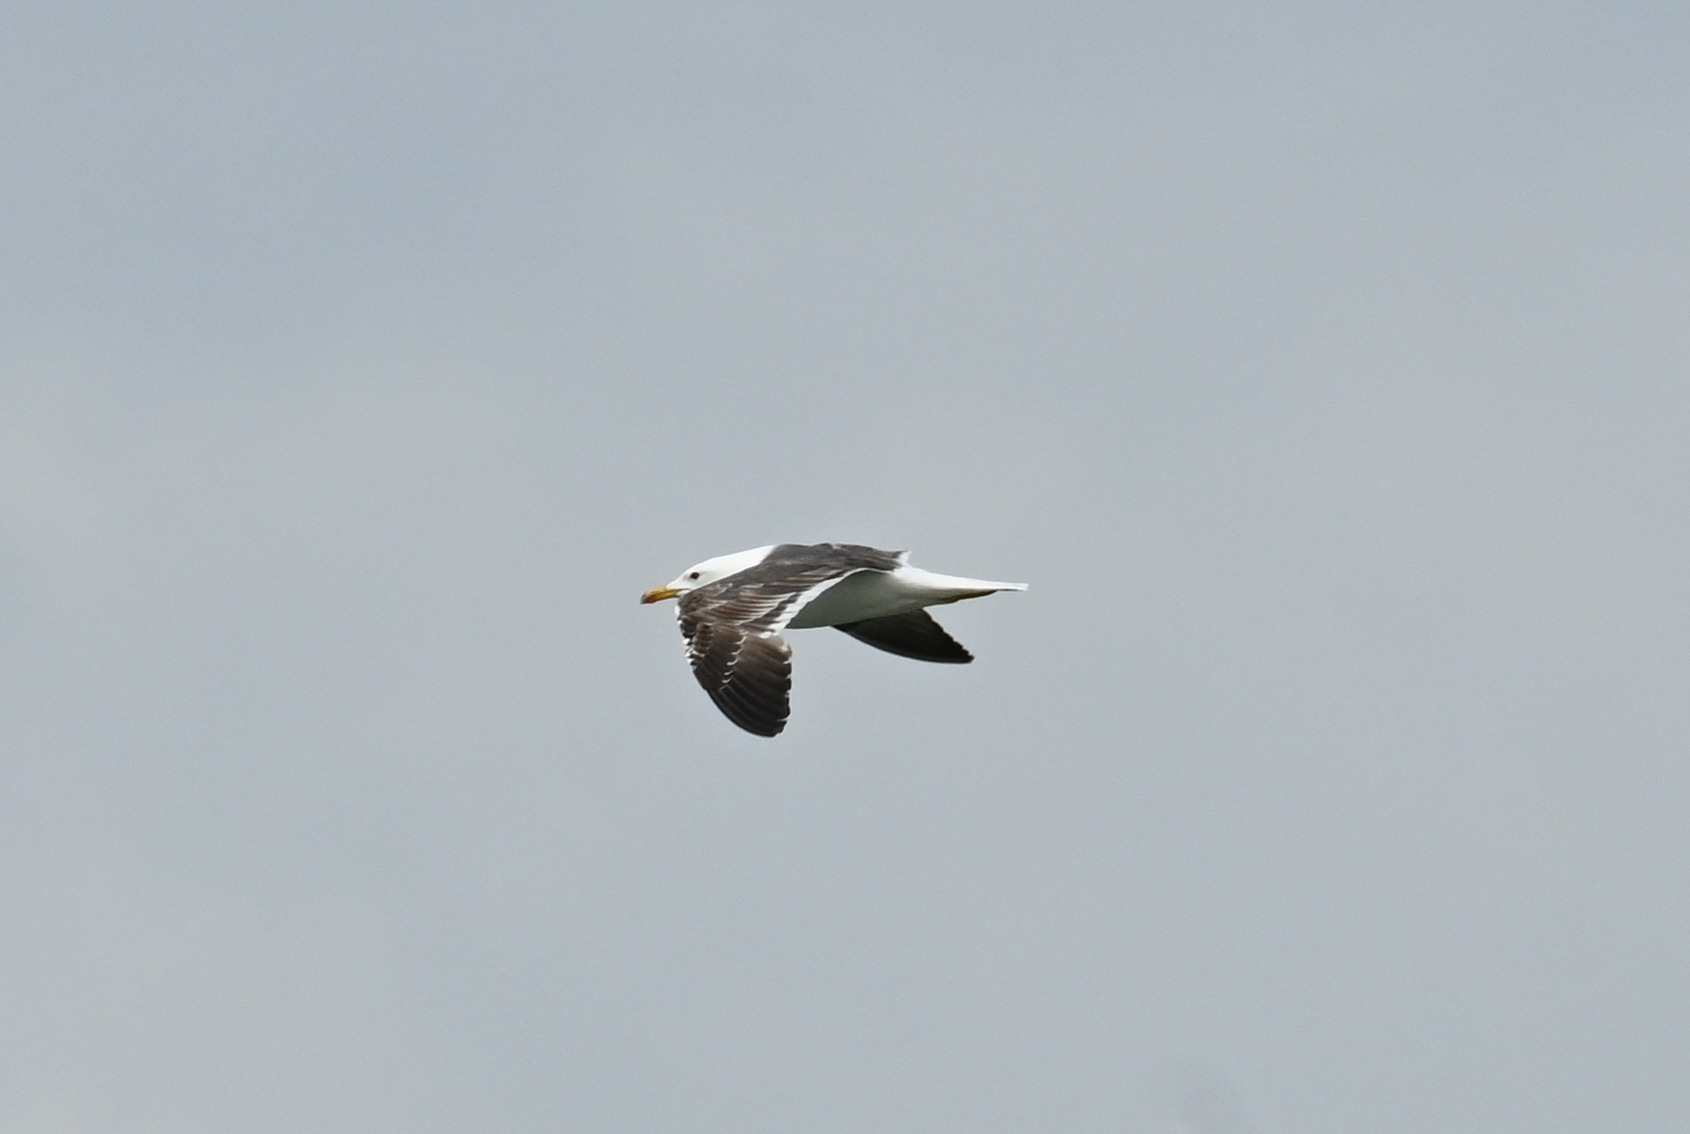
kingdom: Animalia
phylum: Chordata
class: Aves
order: Charadriiformes
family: Laridae
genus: Larus
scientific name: Larus marinus
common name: Great black-backed gull
